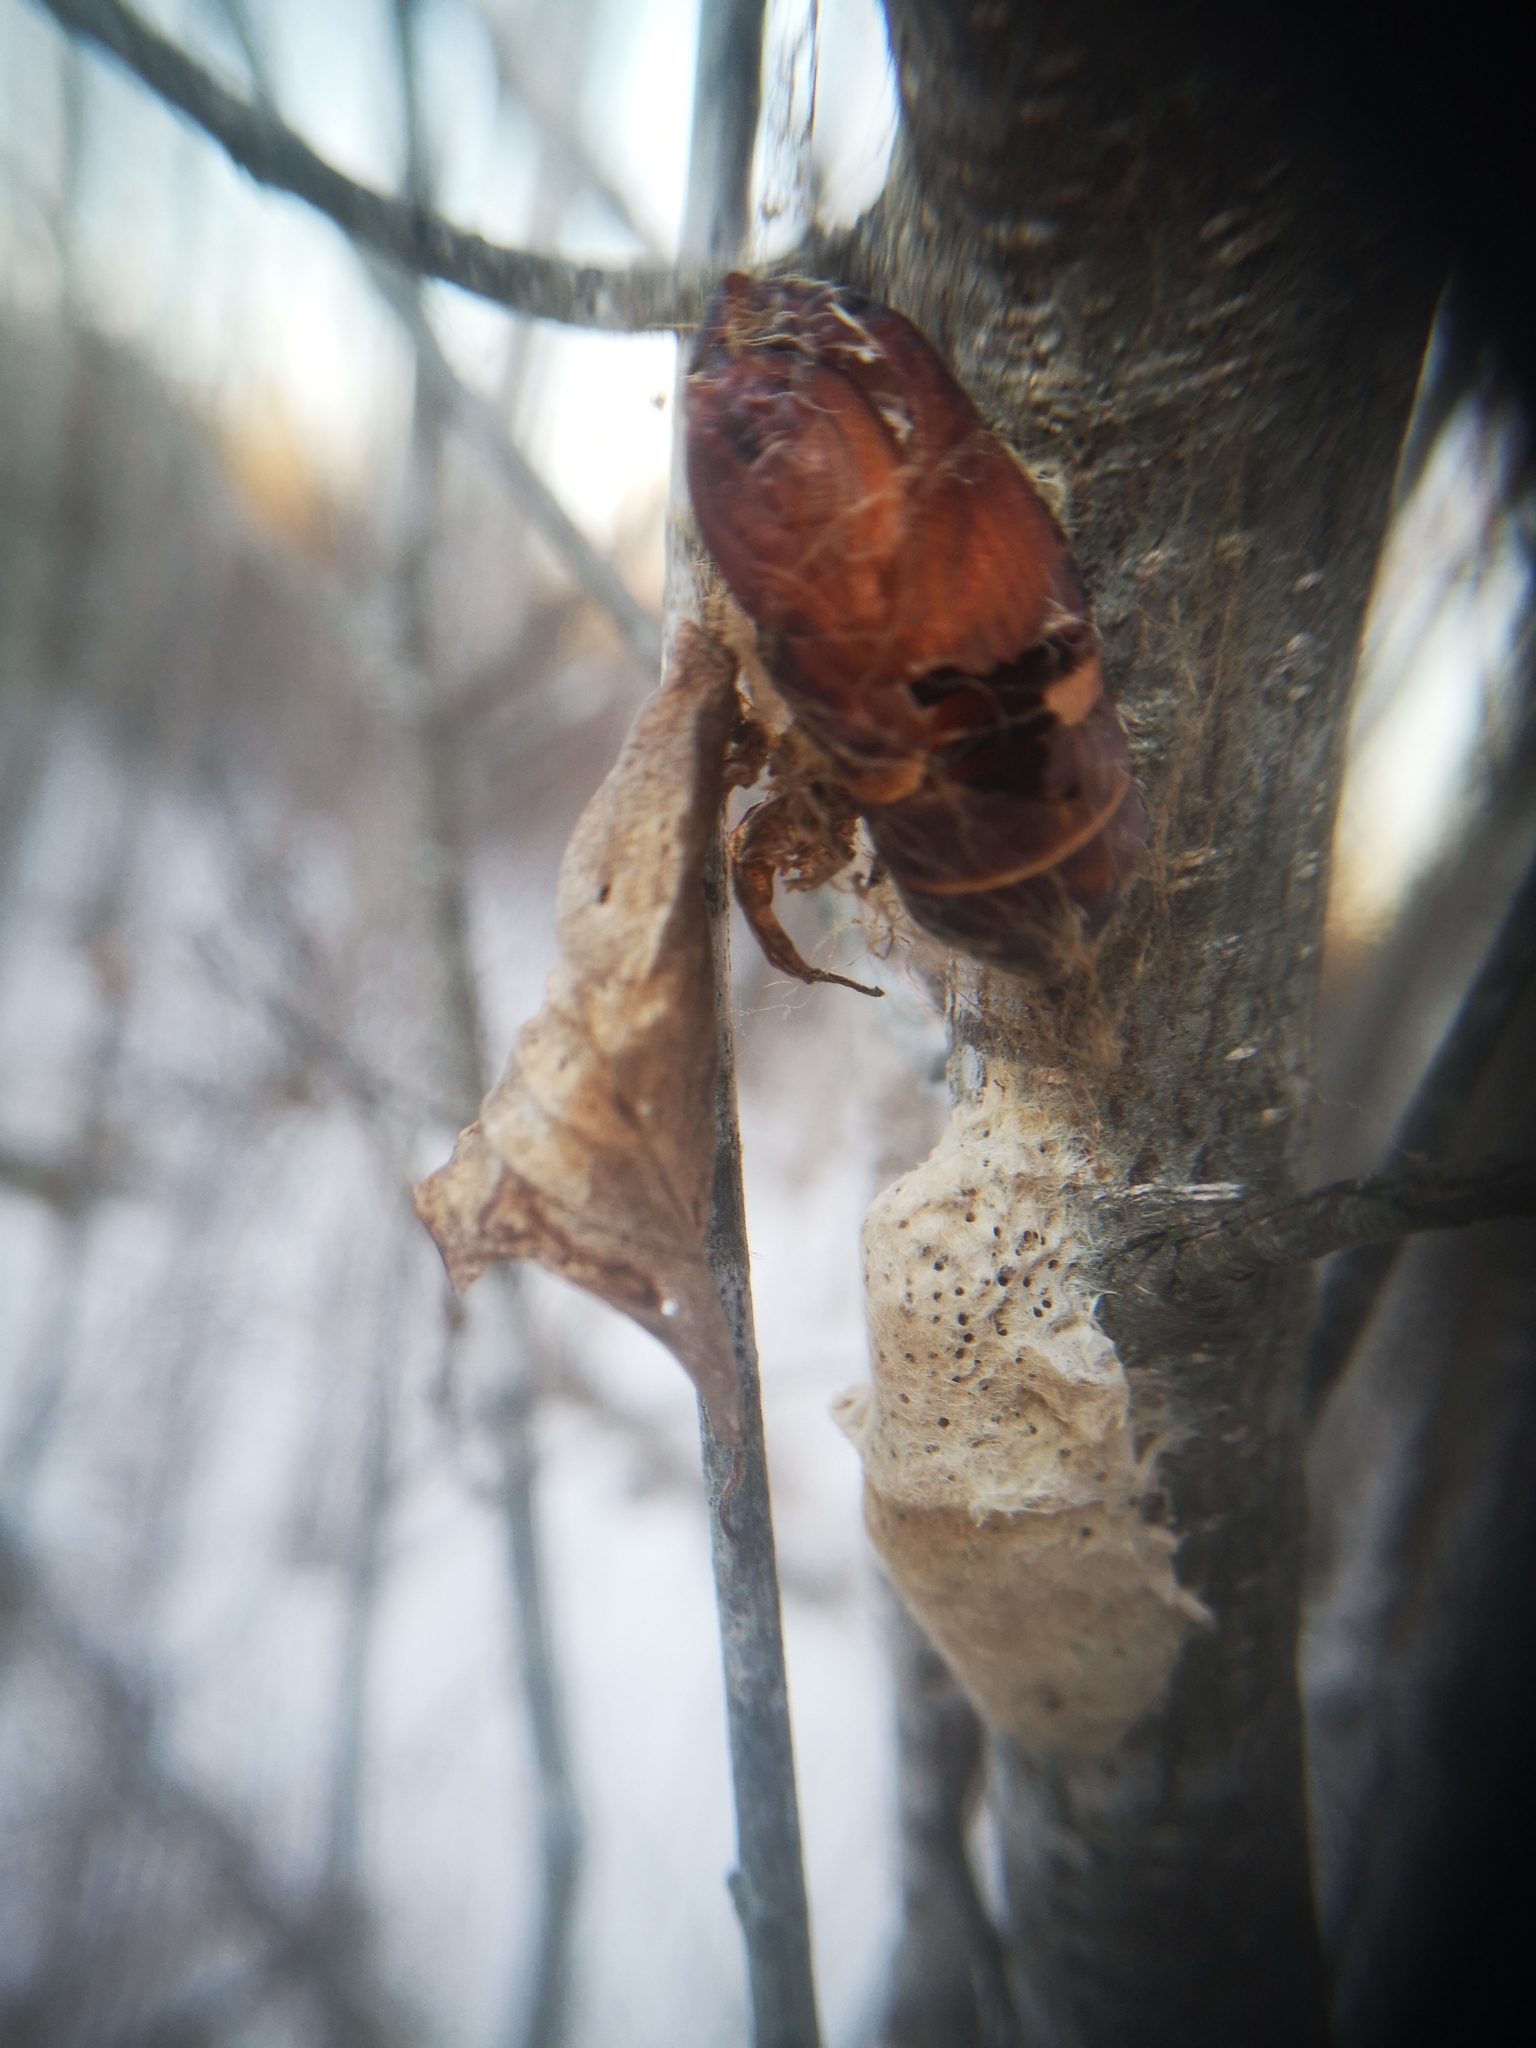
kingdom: Animalia
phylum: Arthropoda
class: Insecta
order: Lepidoptera
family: Erebidae
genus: Lymantria
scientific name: Lymantria dispar
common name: Gypsy moth
